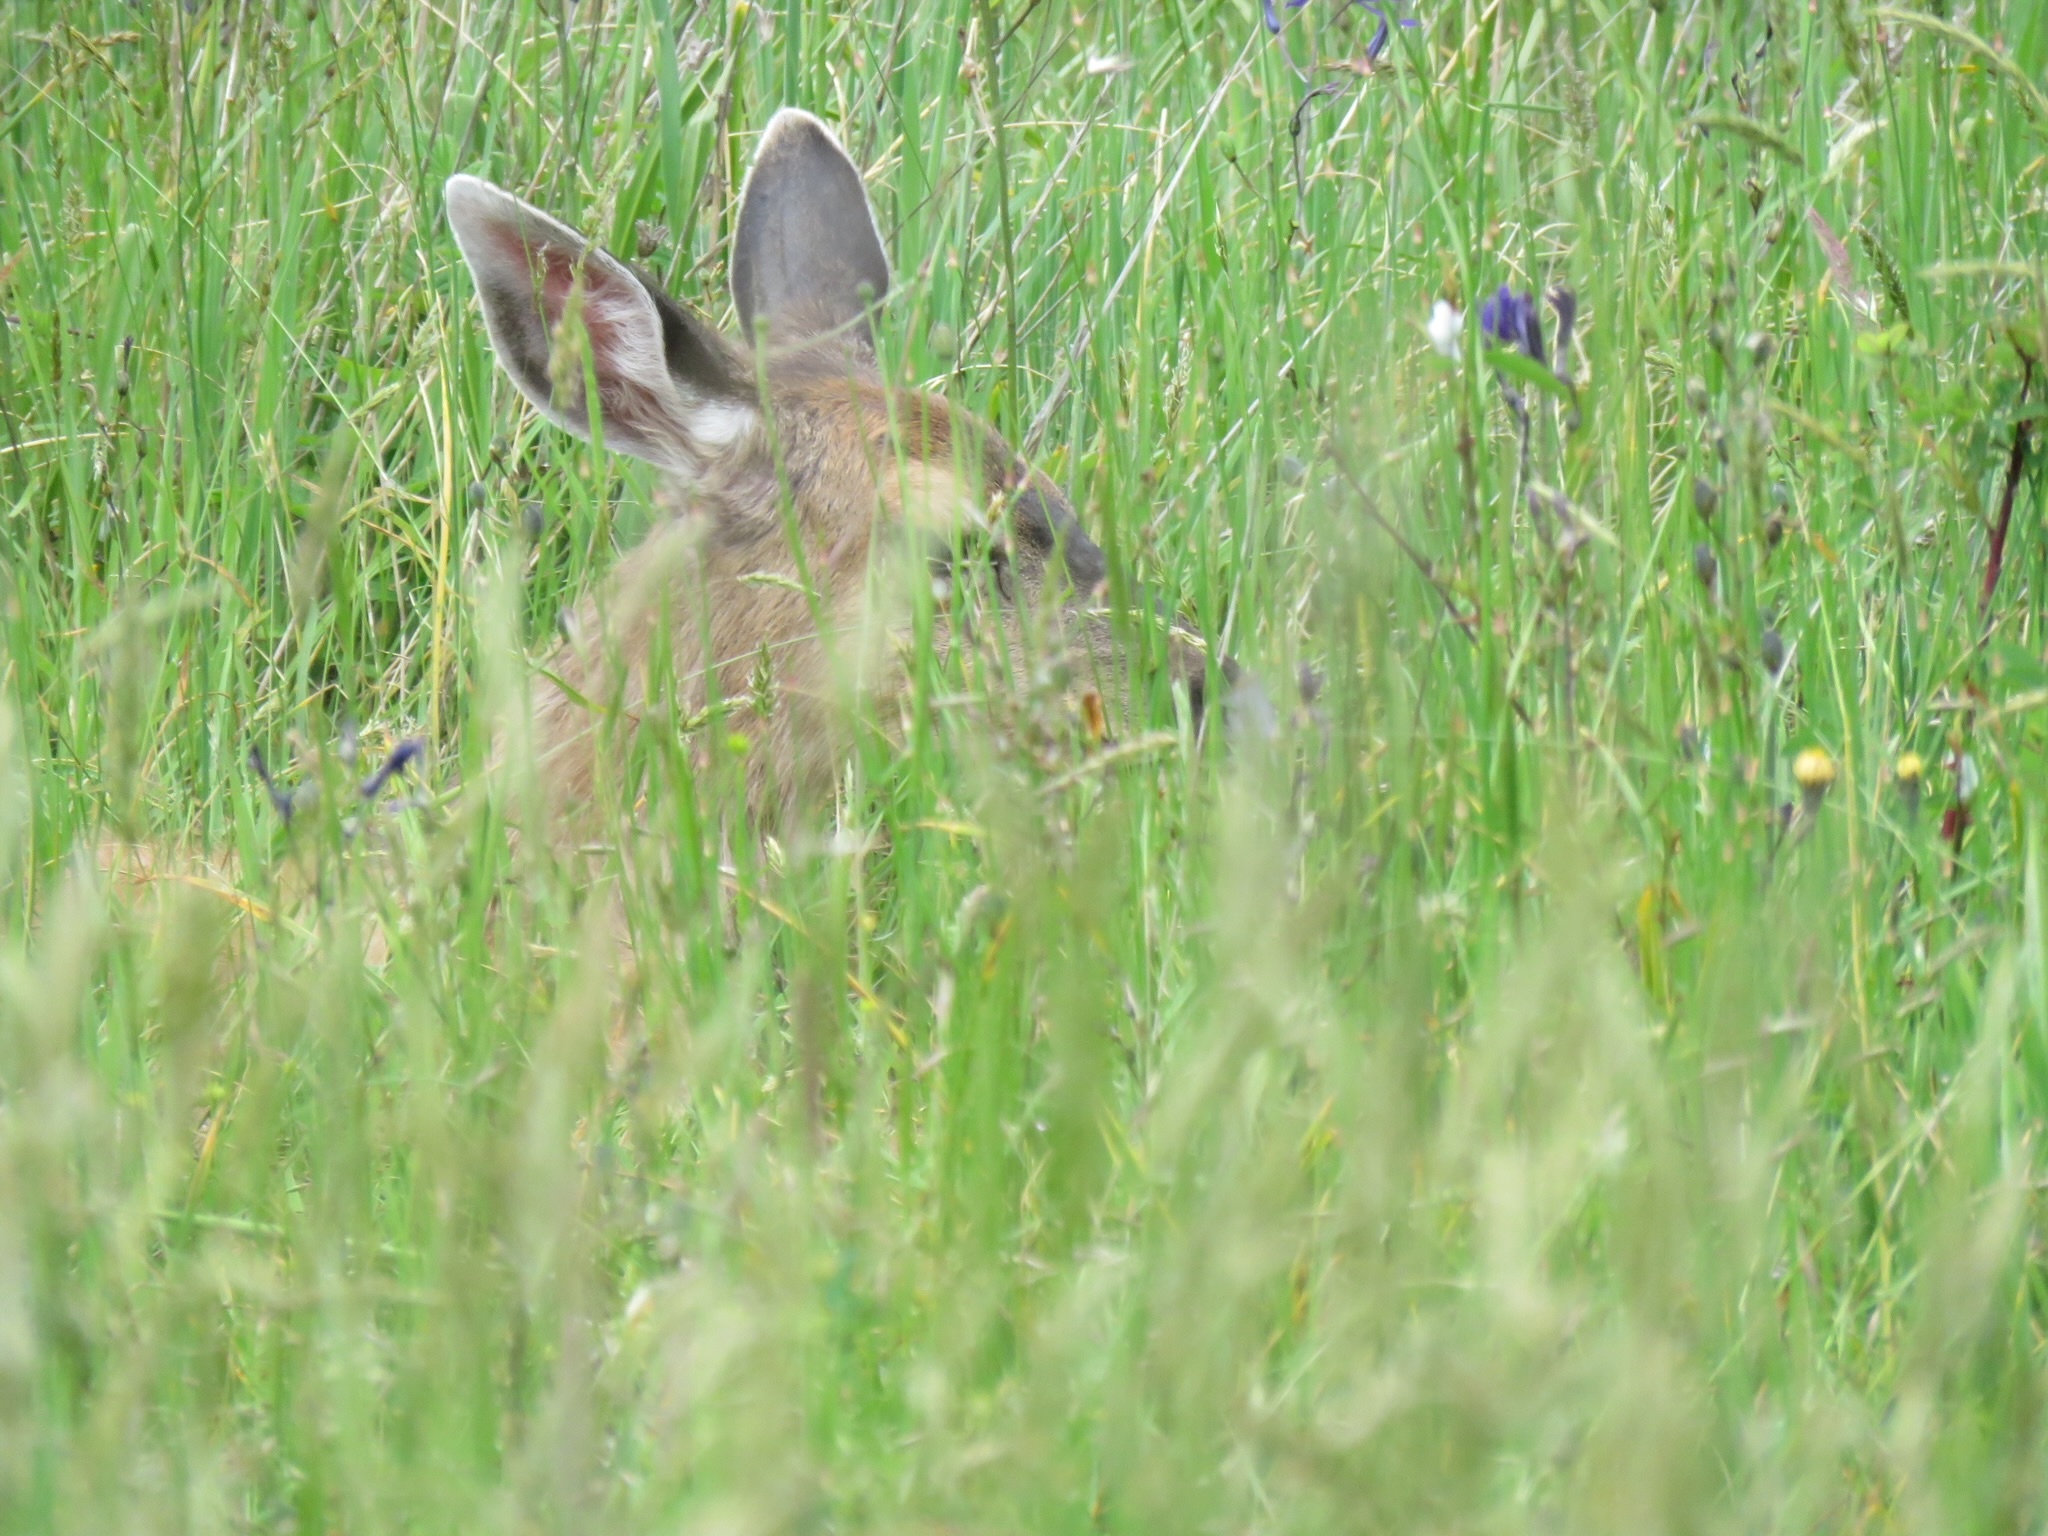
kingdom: Animalia
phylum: Chordata
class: Mammalia
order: Artiodactyla
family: Cervidae
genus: Odocoileus
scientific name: Odocoileus hemionus
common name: Mule deer
